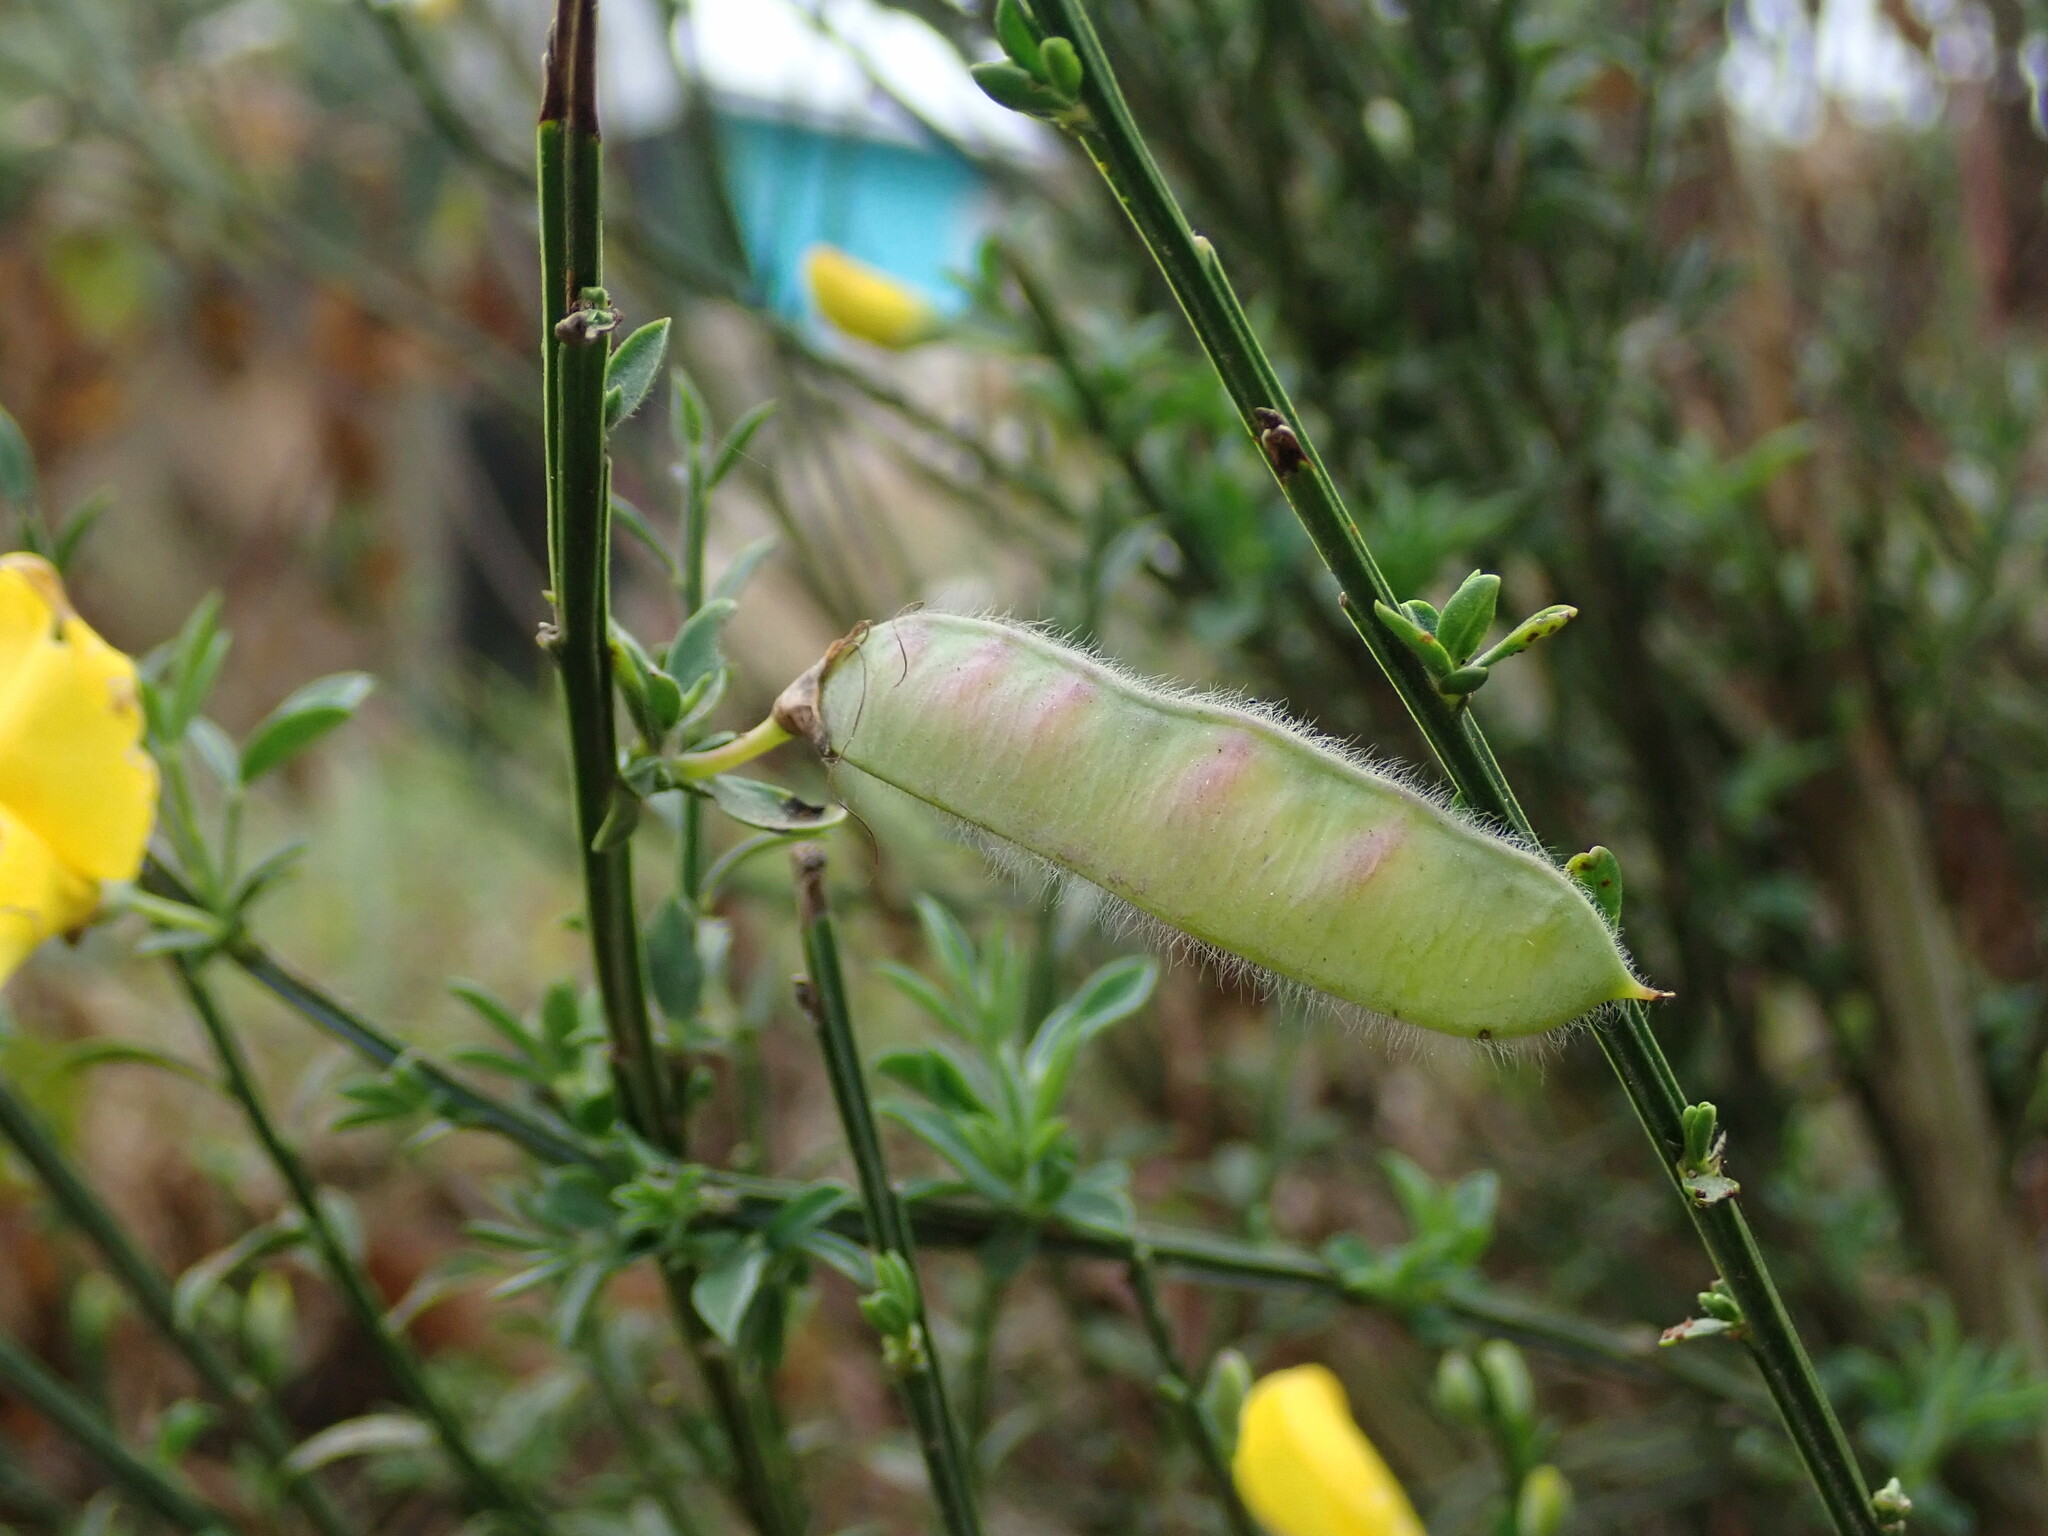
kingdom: Plantae
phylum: Tracheophyta
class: Magnoliopsida
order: Fabales
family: Fabaceae
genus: Cytisus
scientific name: Cytisus scoparius
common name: Scotch broom
